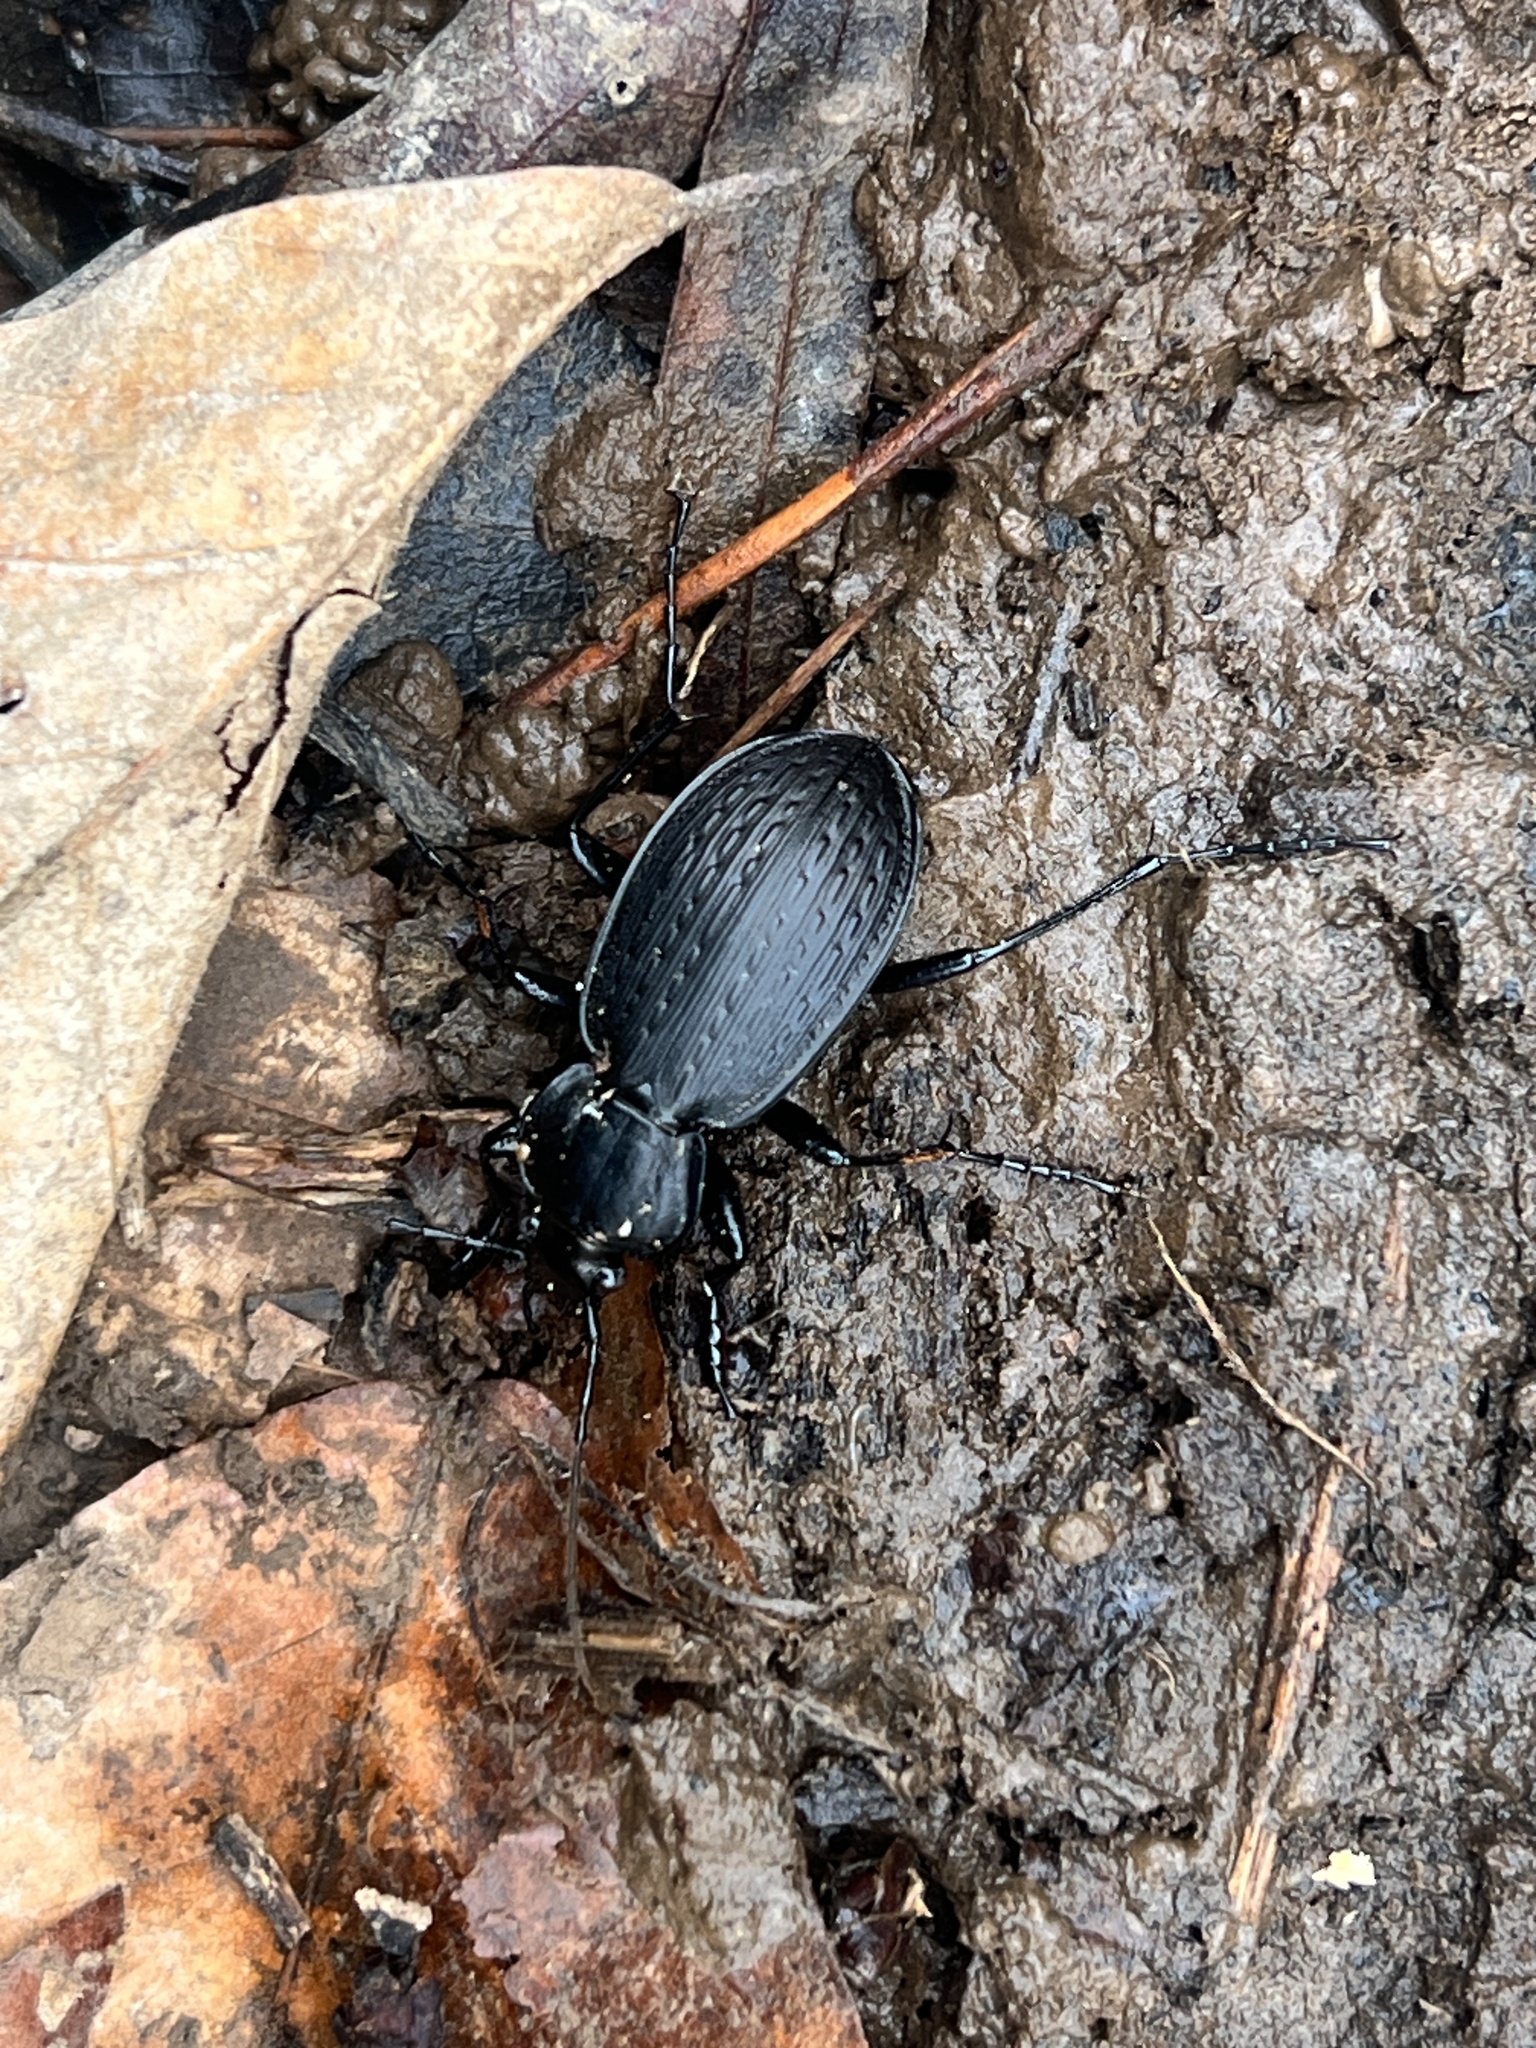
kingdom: Animalia
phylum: Arthropoda
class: Insecta
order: Coleoptera
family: Carabidae
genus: Carabus
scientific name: Carabus vinctus
